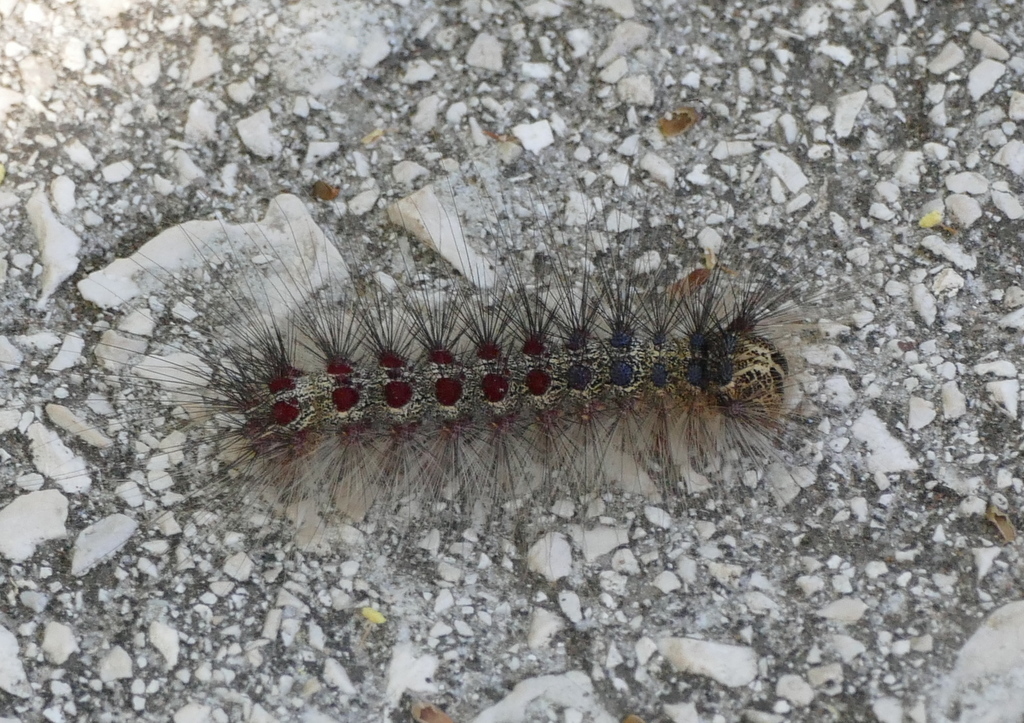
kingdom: Animalia
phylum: Arthropoda
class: Insecta
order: Lepidoptera
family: Erebidae
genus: Lymantria
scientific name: Lymantria dispar
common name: Gypsy moth
